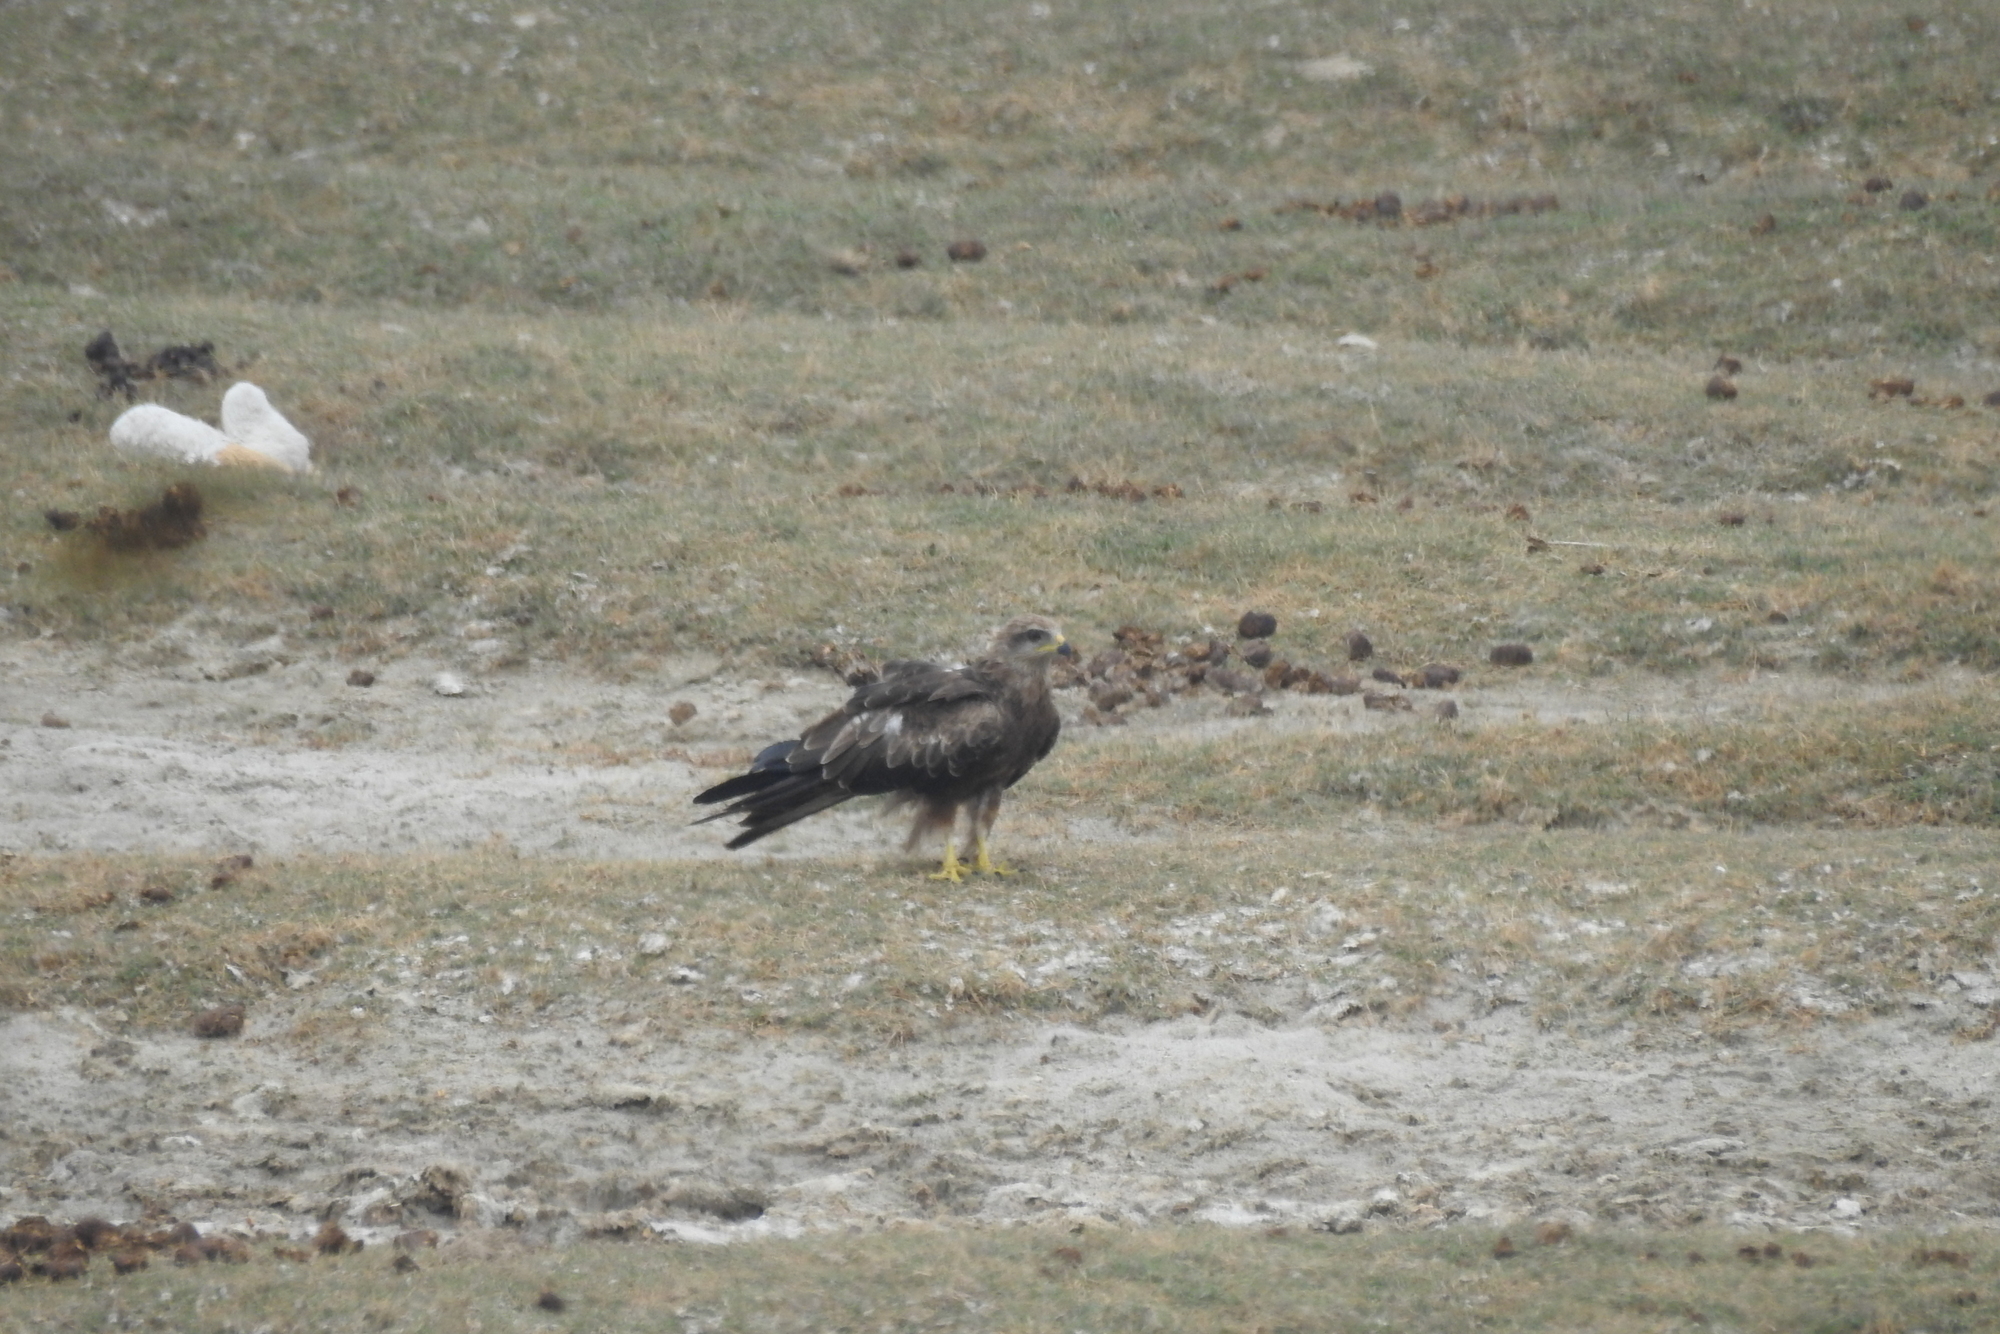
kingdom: Animalia
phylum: Chordata
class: Aves
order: Accipitriformes
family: Accipitridae
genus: Milvus
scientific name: Milvus migrans
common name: Black kite
